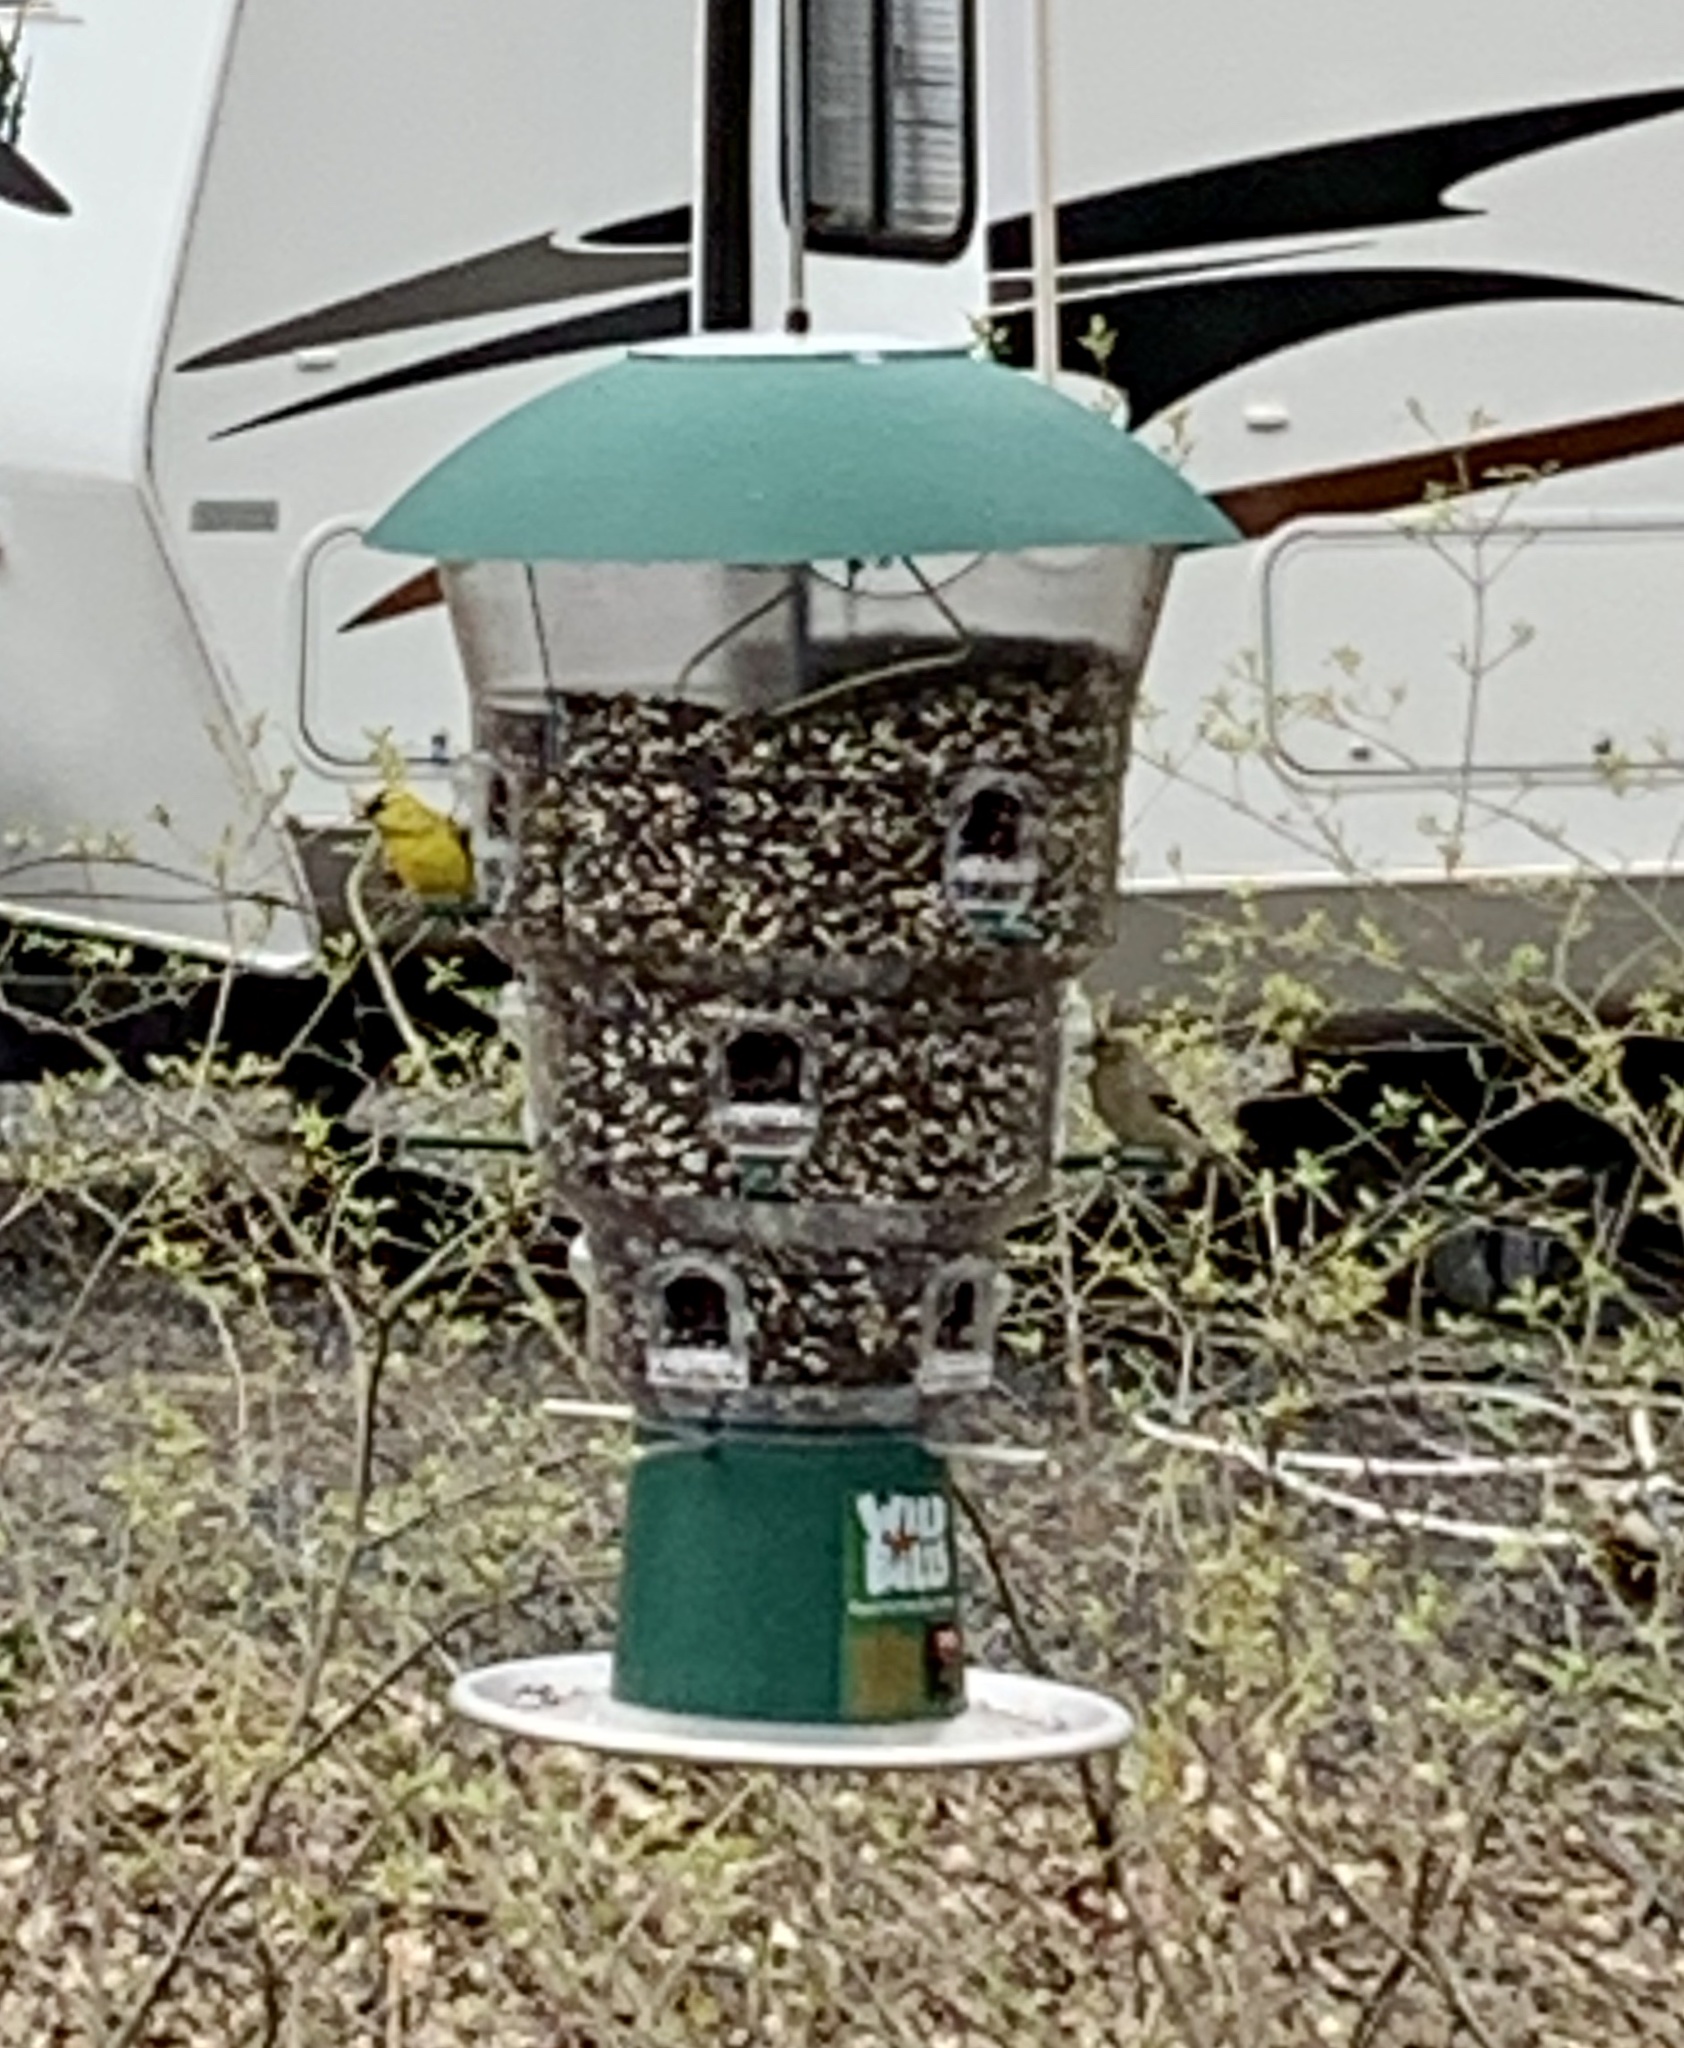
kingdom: Animalia
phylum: Chordata
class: Aves
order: Passeriformes
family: Fringillidae
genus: Spinus
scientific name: Spinus tristis
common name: American goldfinch
